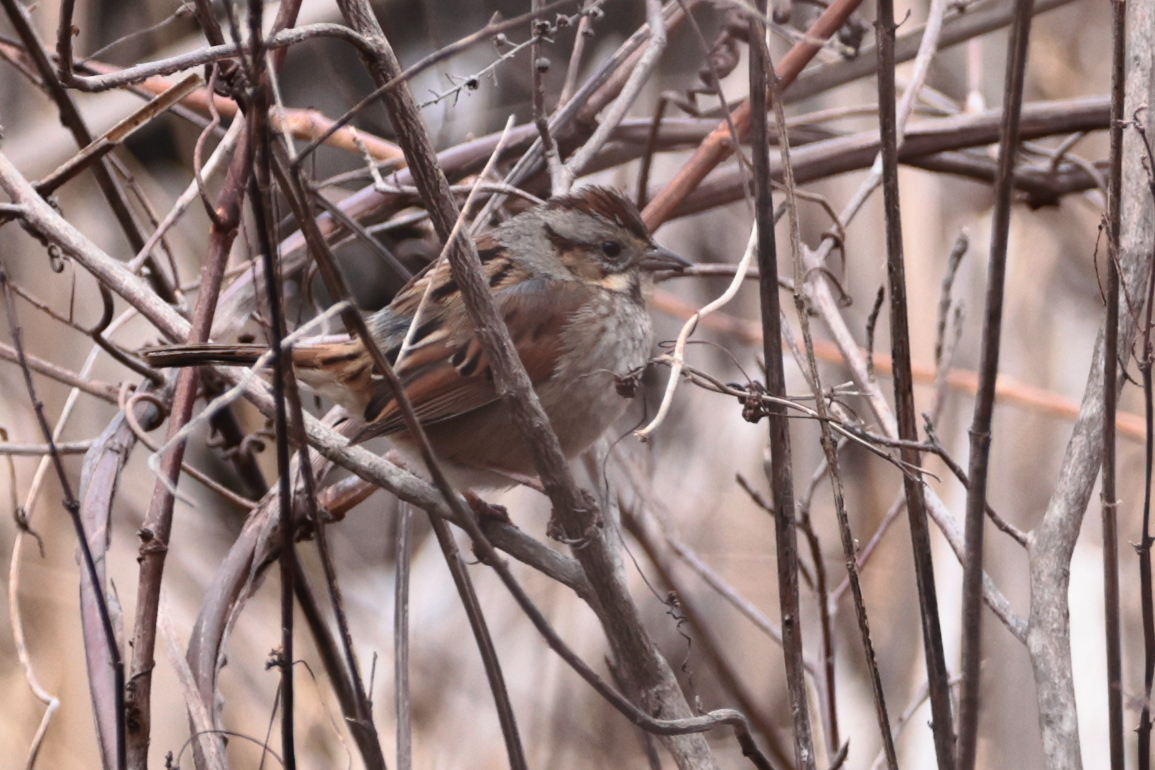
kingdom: Animalia
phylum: Chordata
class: Aves
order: Passeriformes
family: Passerellidae
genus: Melospiza
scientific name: Melospiza georgiana
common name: Swamp sparrow
